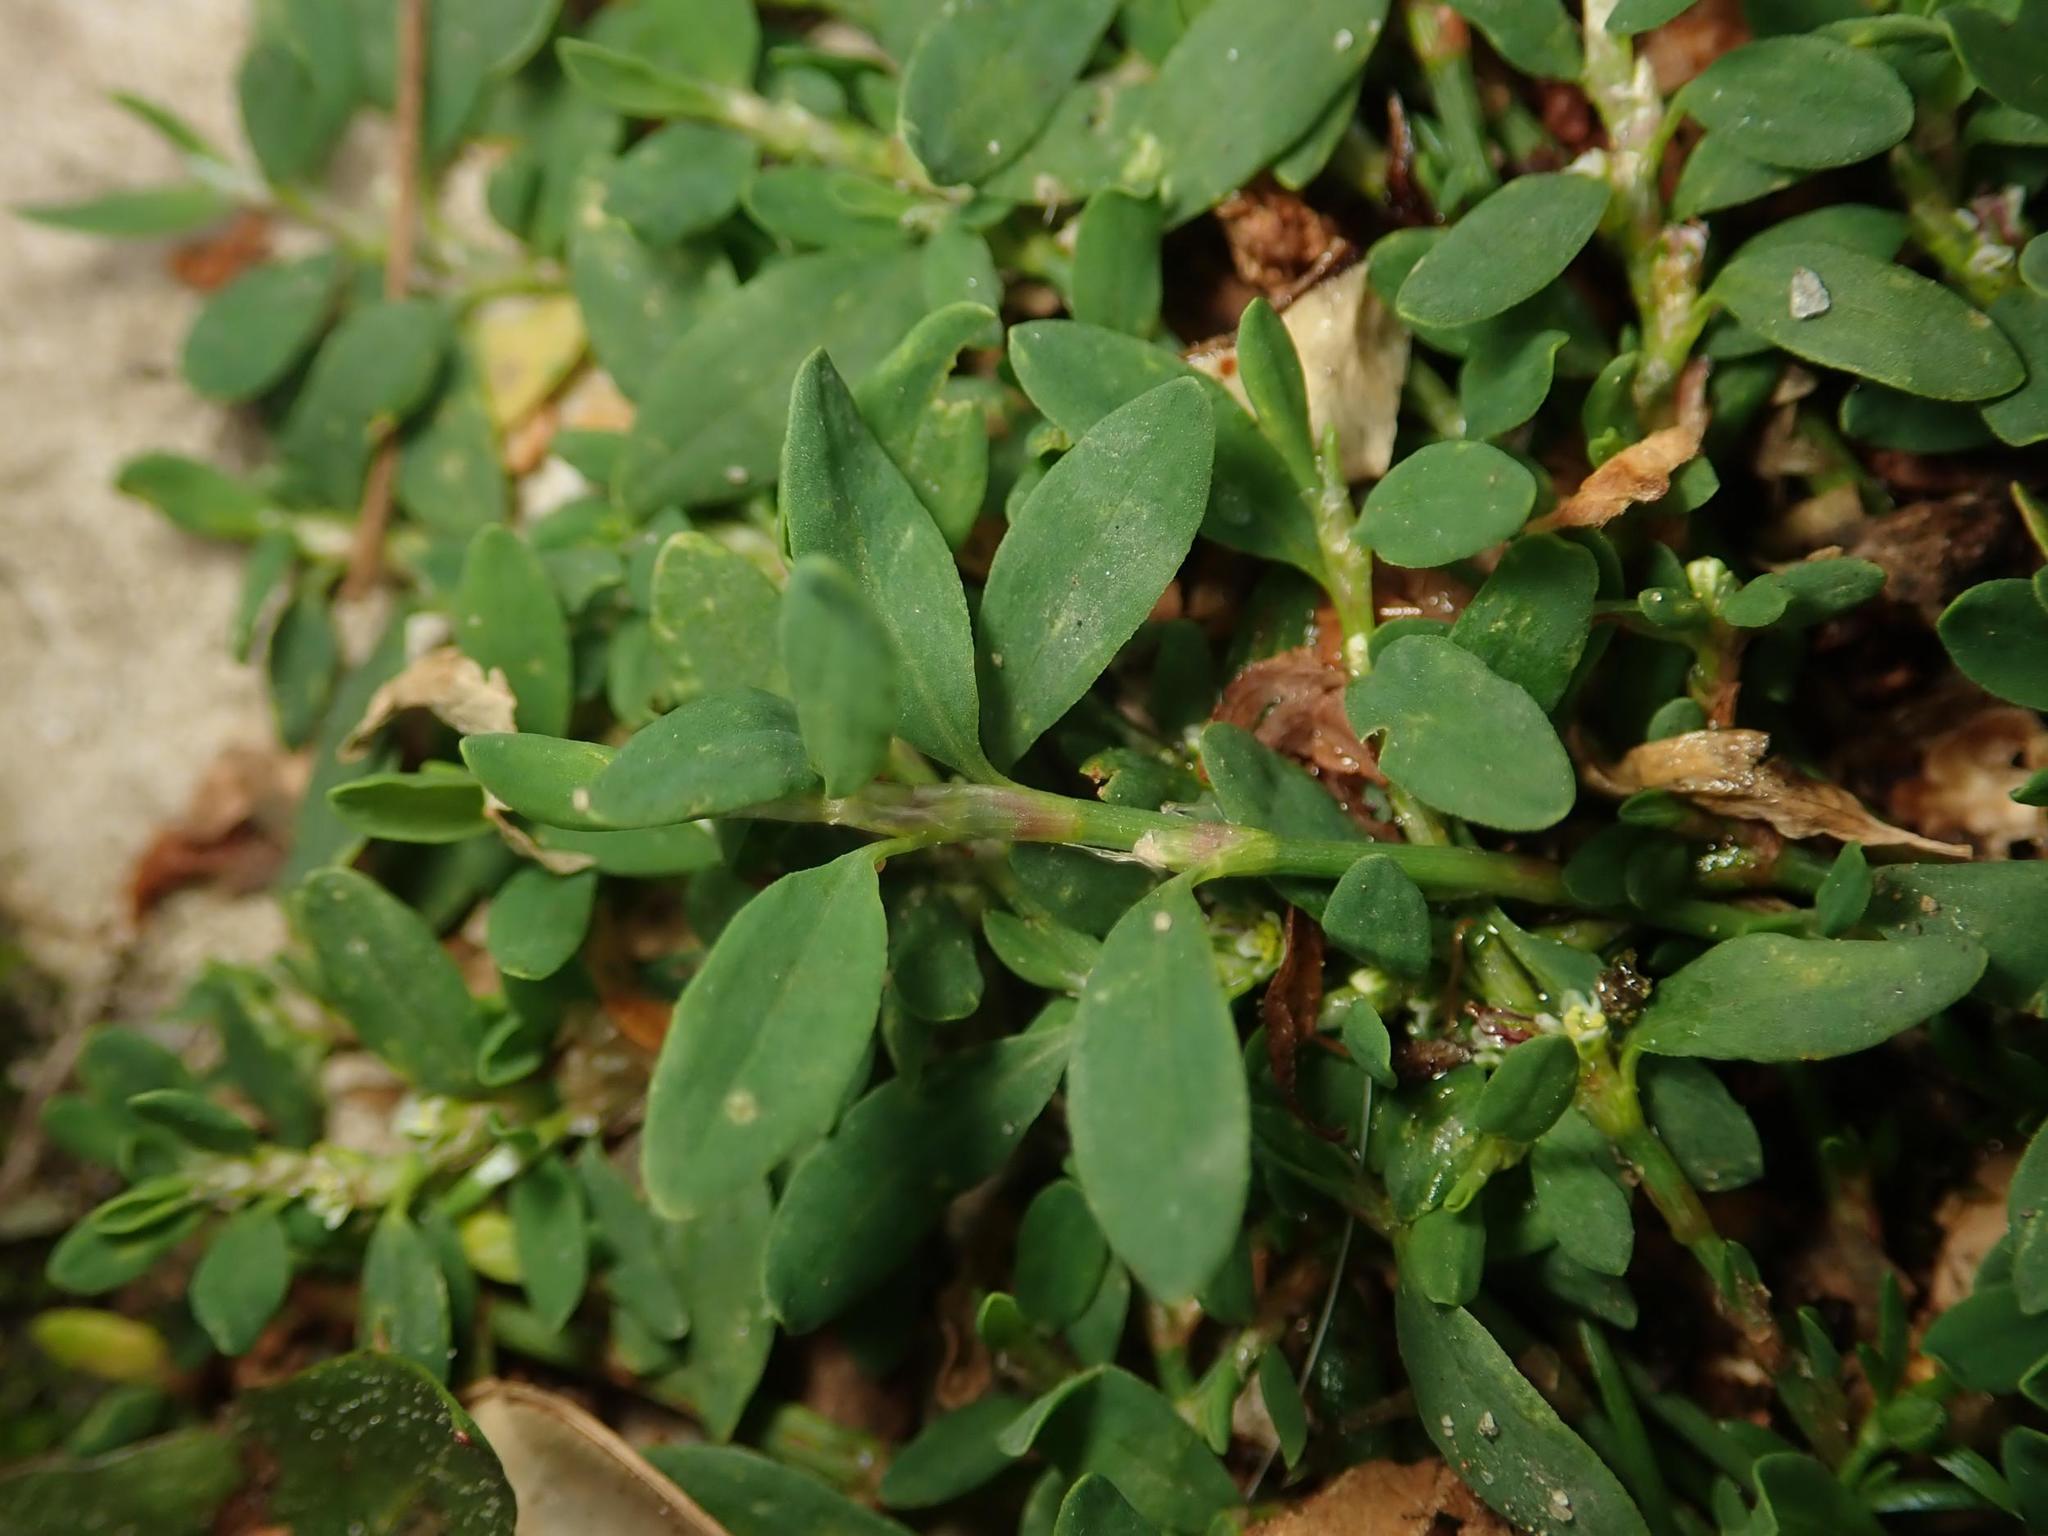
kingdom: Plantae
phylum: Tracheophyta
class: Magnoliopsida
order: Caryophyllales
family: Polygonaceae
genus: Polygonum
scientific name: Polygonum aviculare
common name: Prostrate knotweed
